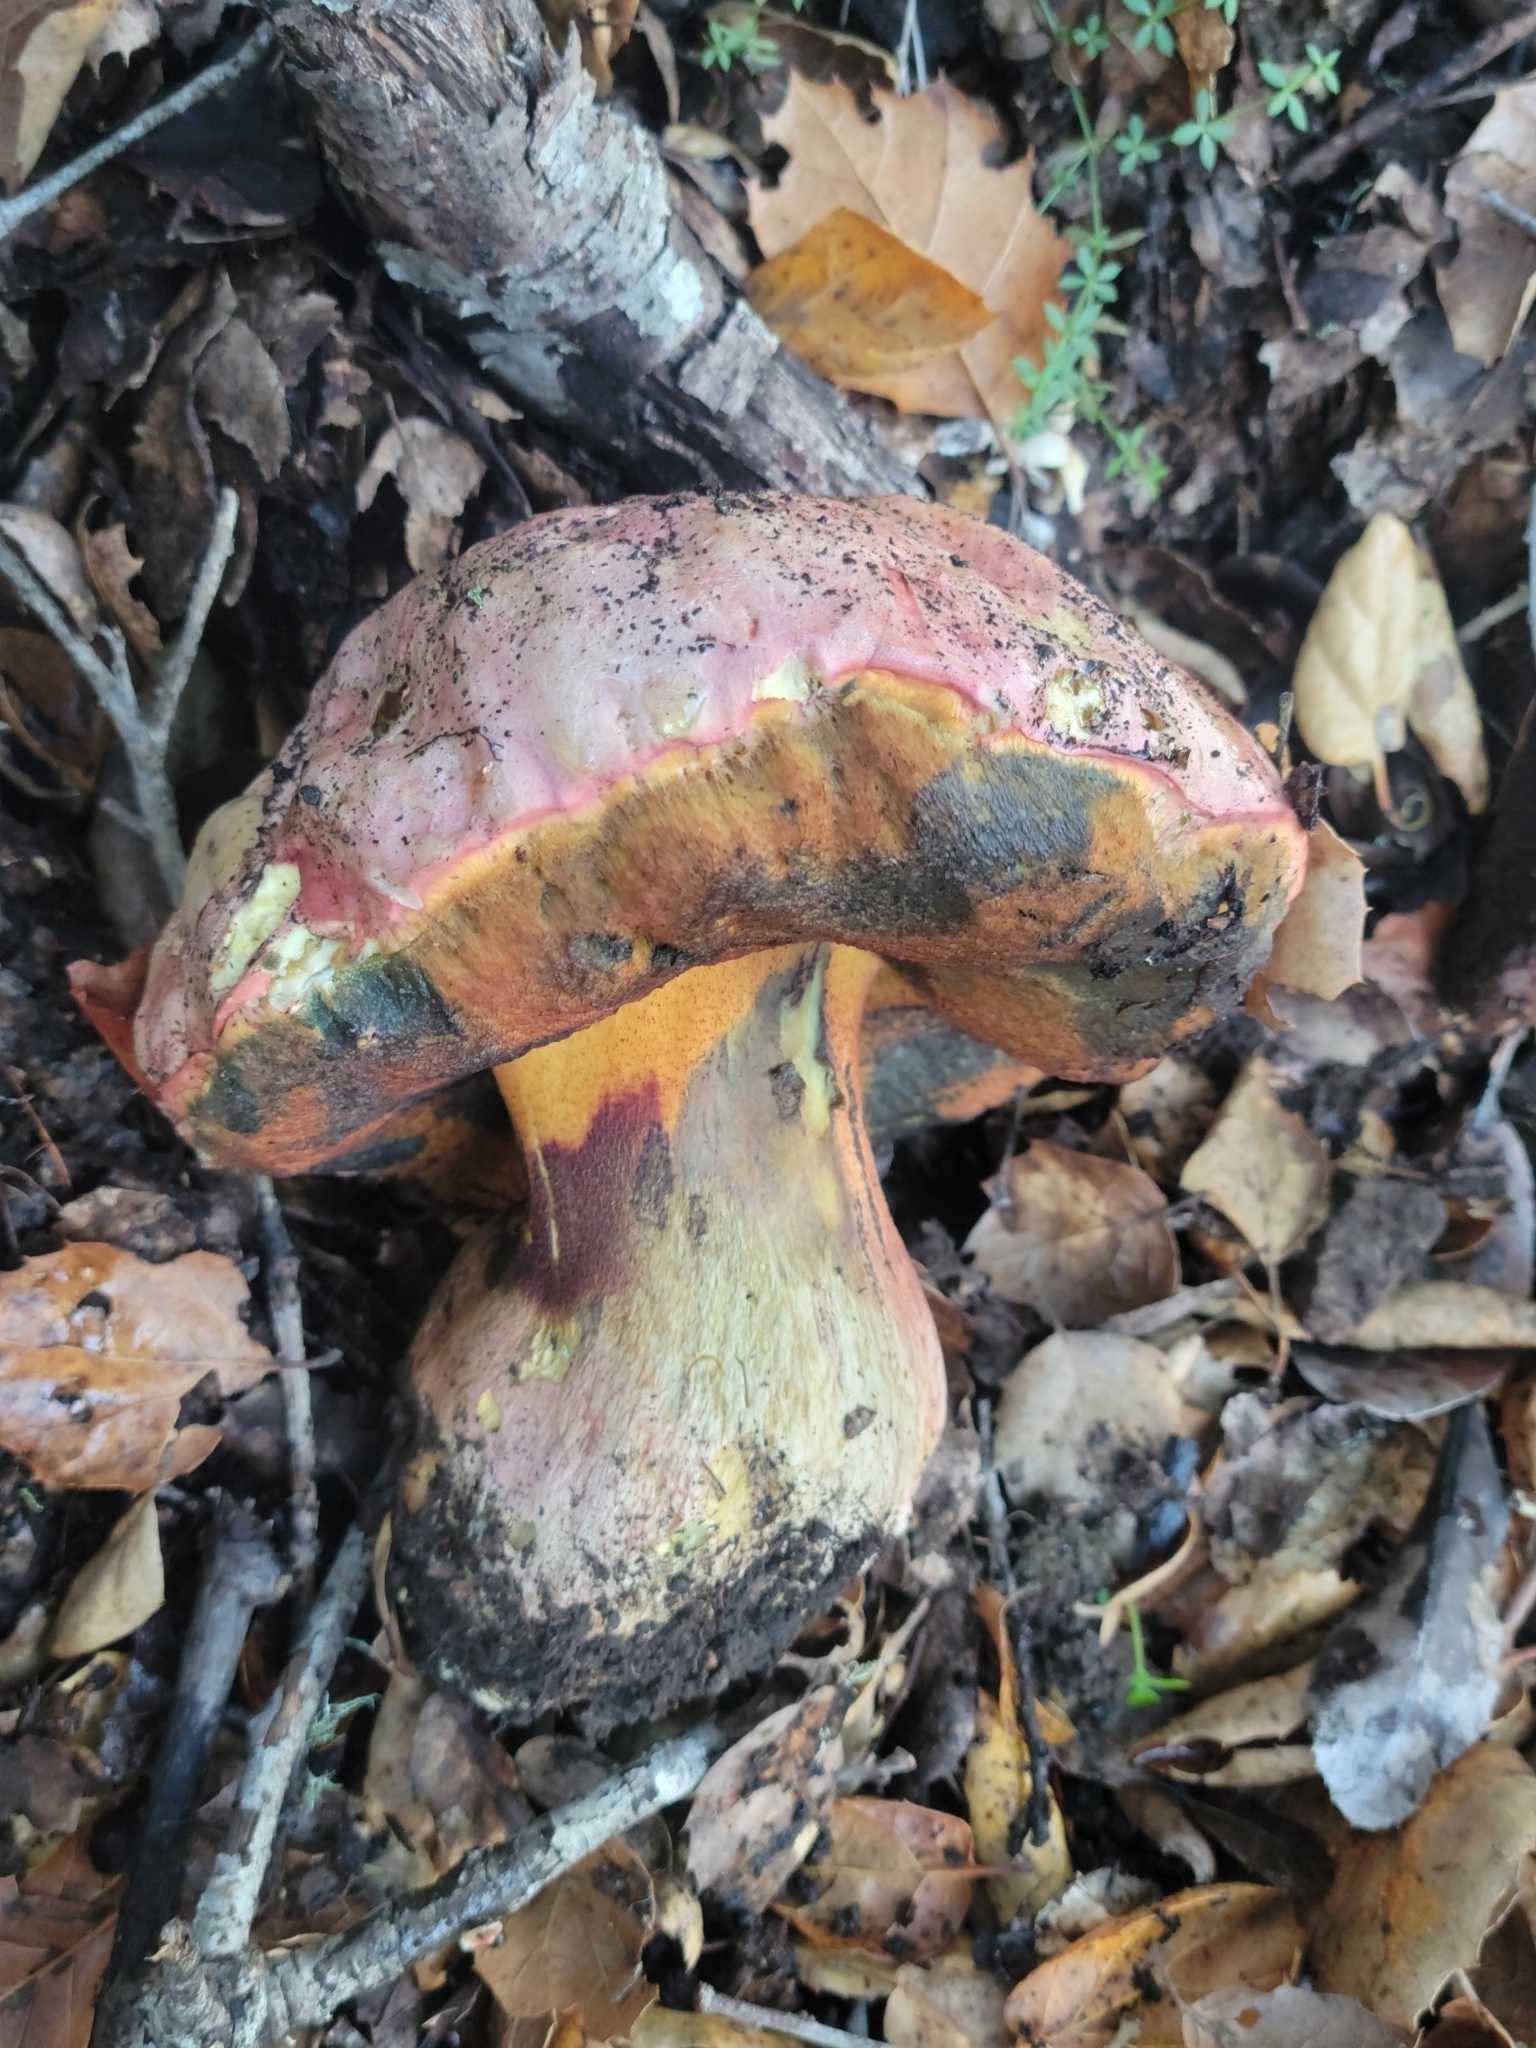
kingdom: Fungi
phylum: Basidiomycota
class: Agaricomycetes
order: Boletales
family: Boletaceae
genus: Rubroboletus
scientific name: Rubroboletus eastwoodiae
